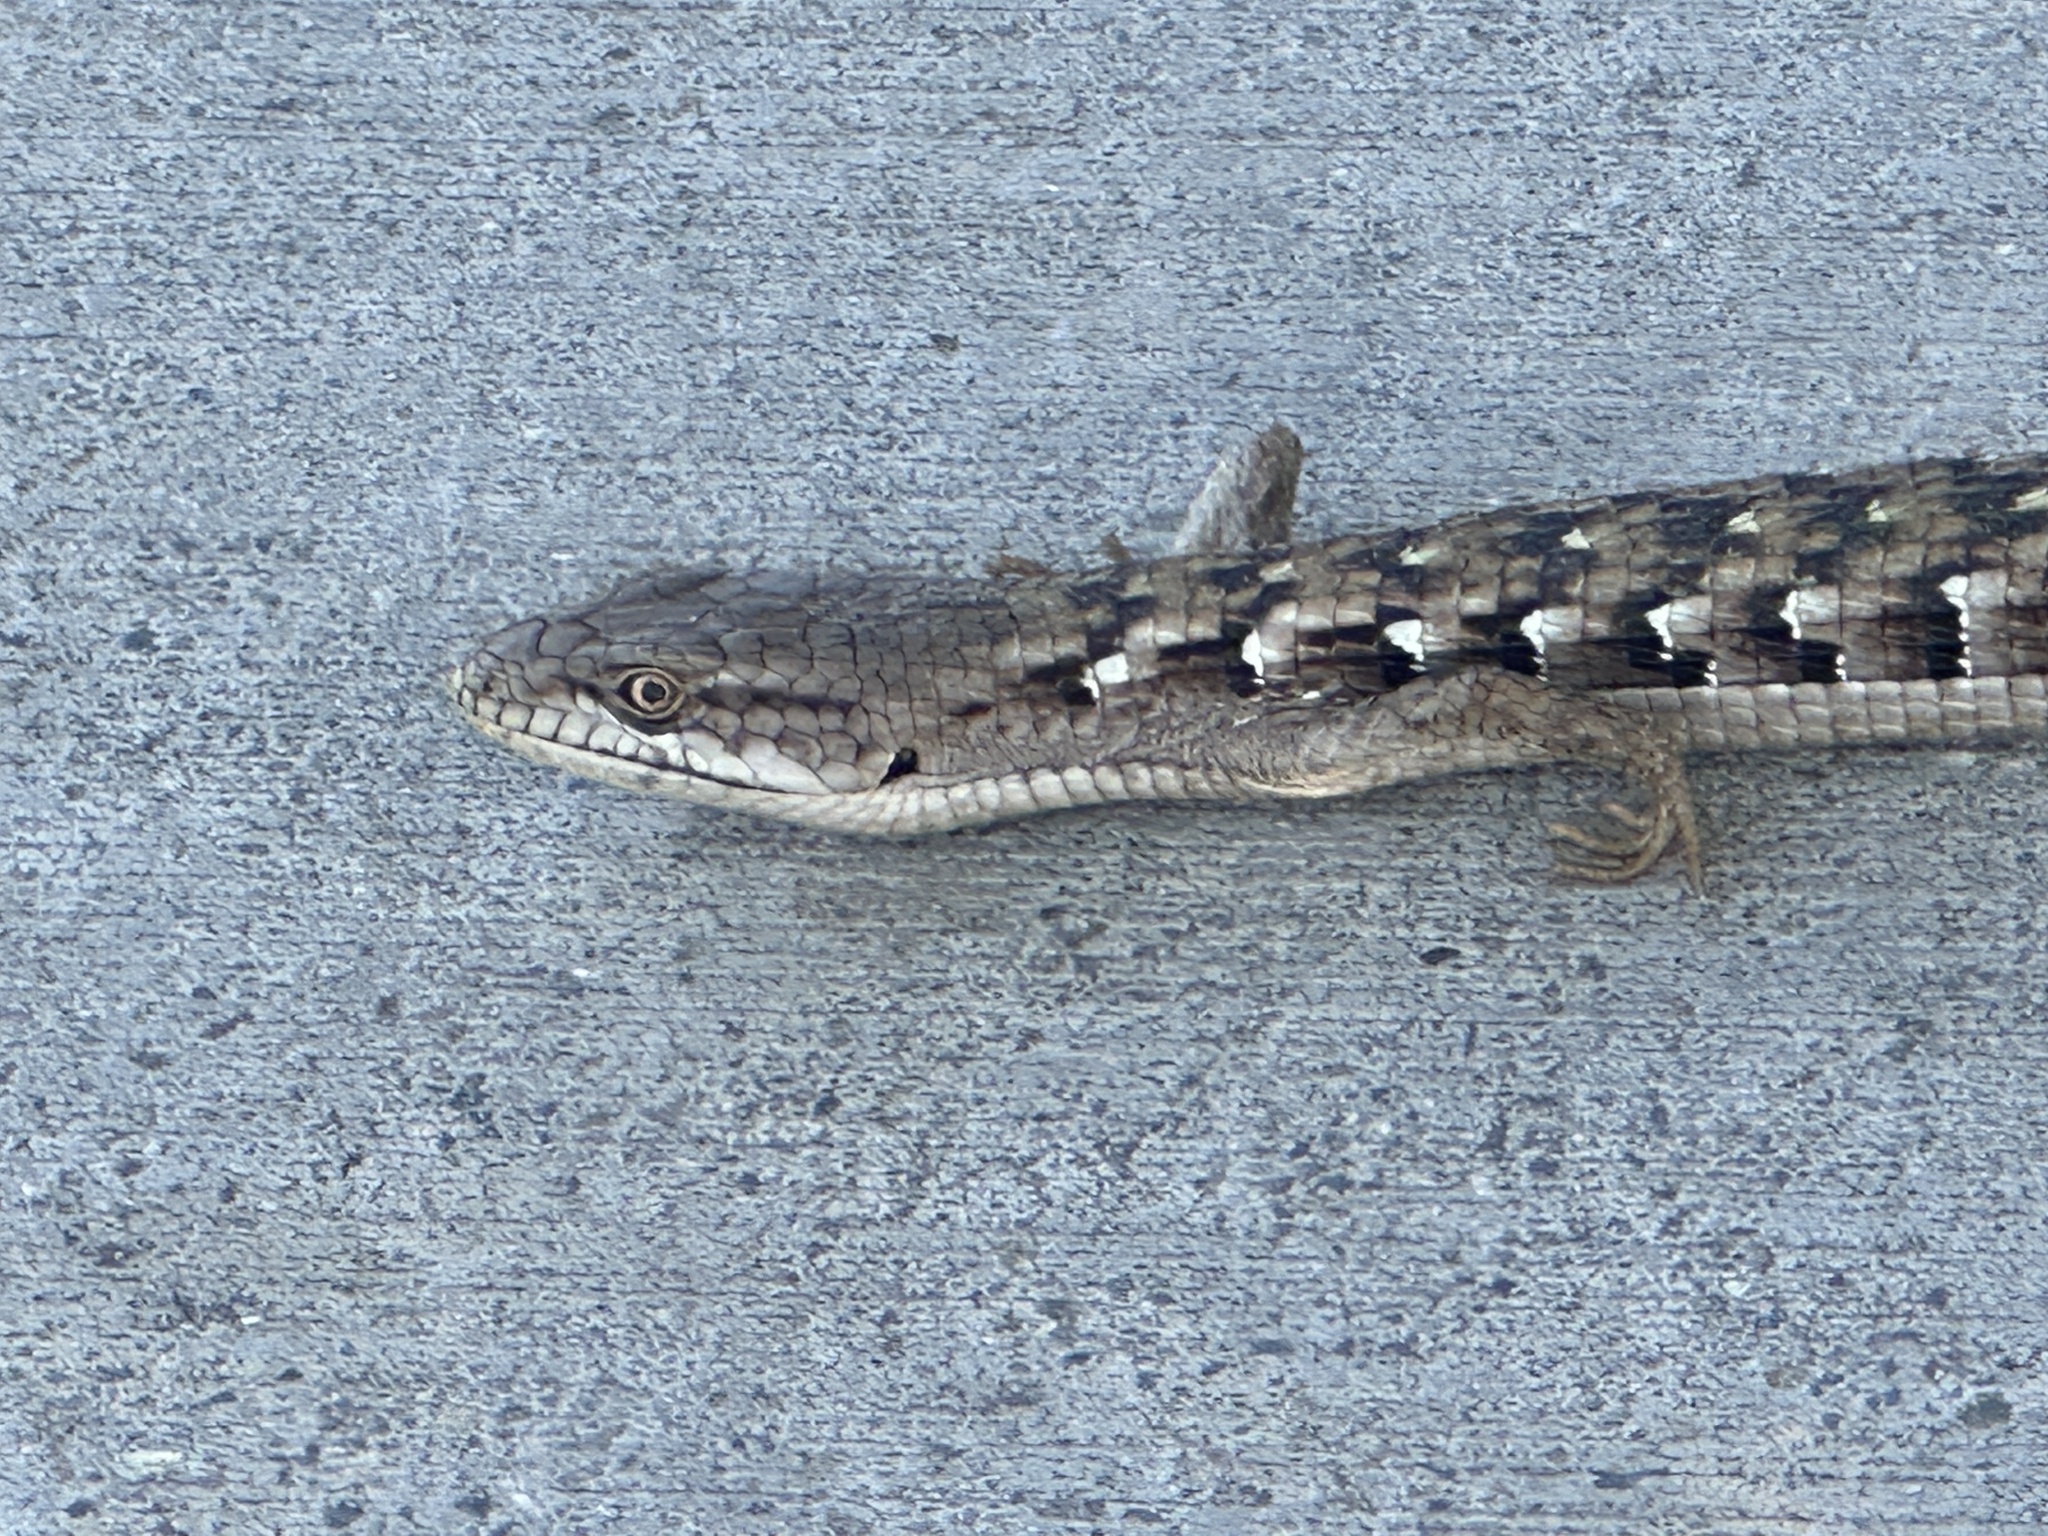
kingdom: Animalia
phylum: Chordata
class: Squamata
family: Anguidae
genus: Elgaria
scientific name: Elgaria multicarinata
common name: Southern alligator lizard
